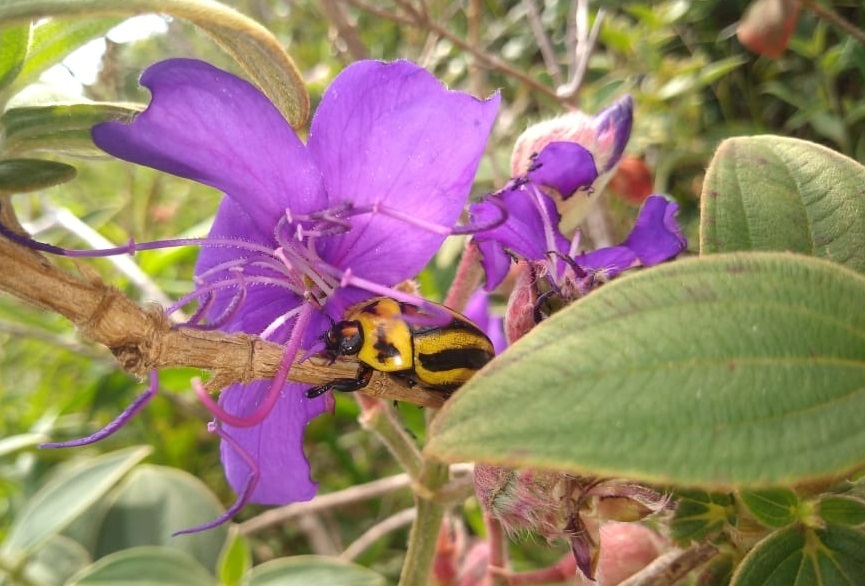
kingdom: Animalia
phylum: Arthropoda
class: Insecta
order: Coleoptera
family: Scarabaeidae
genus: Macraspis
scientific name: Macraspis cincta
